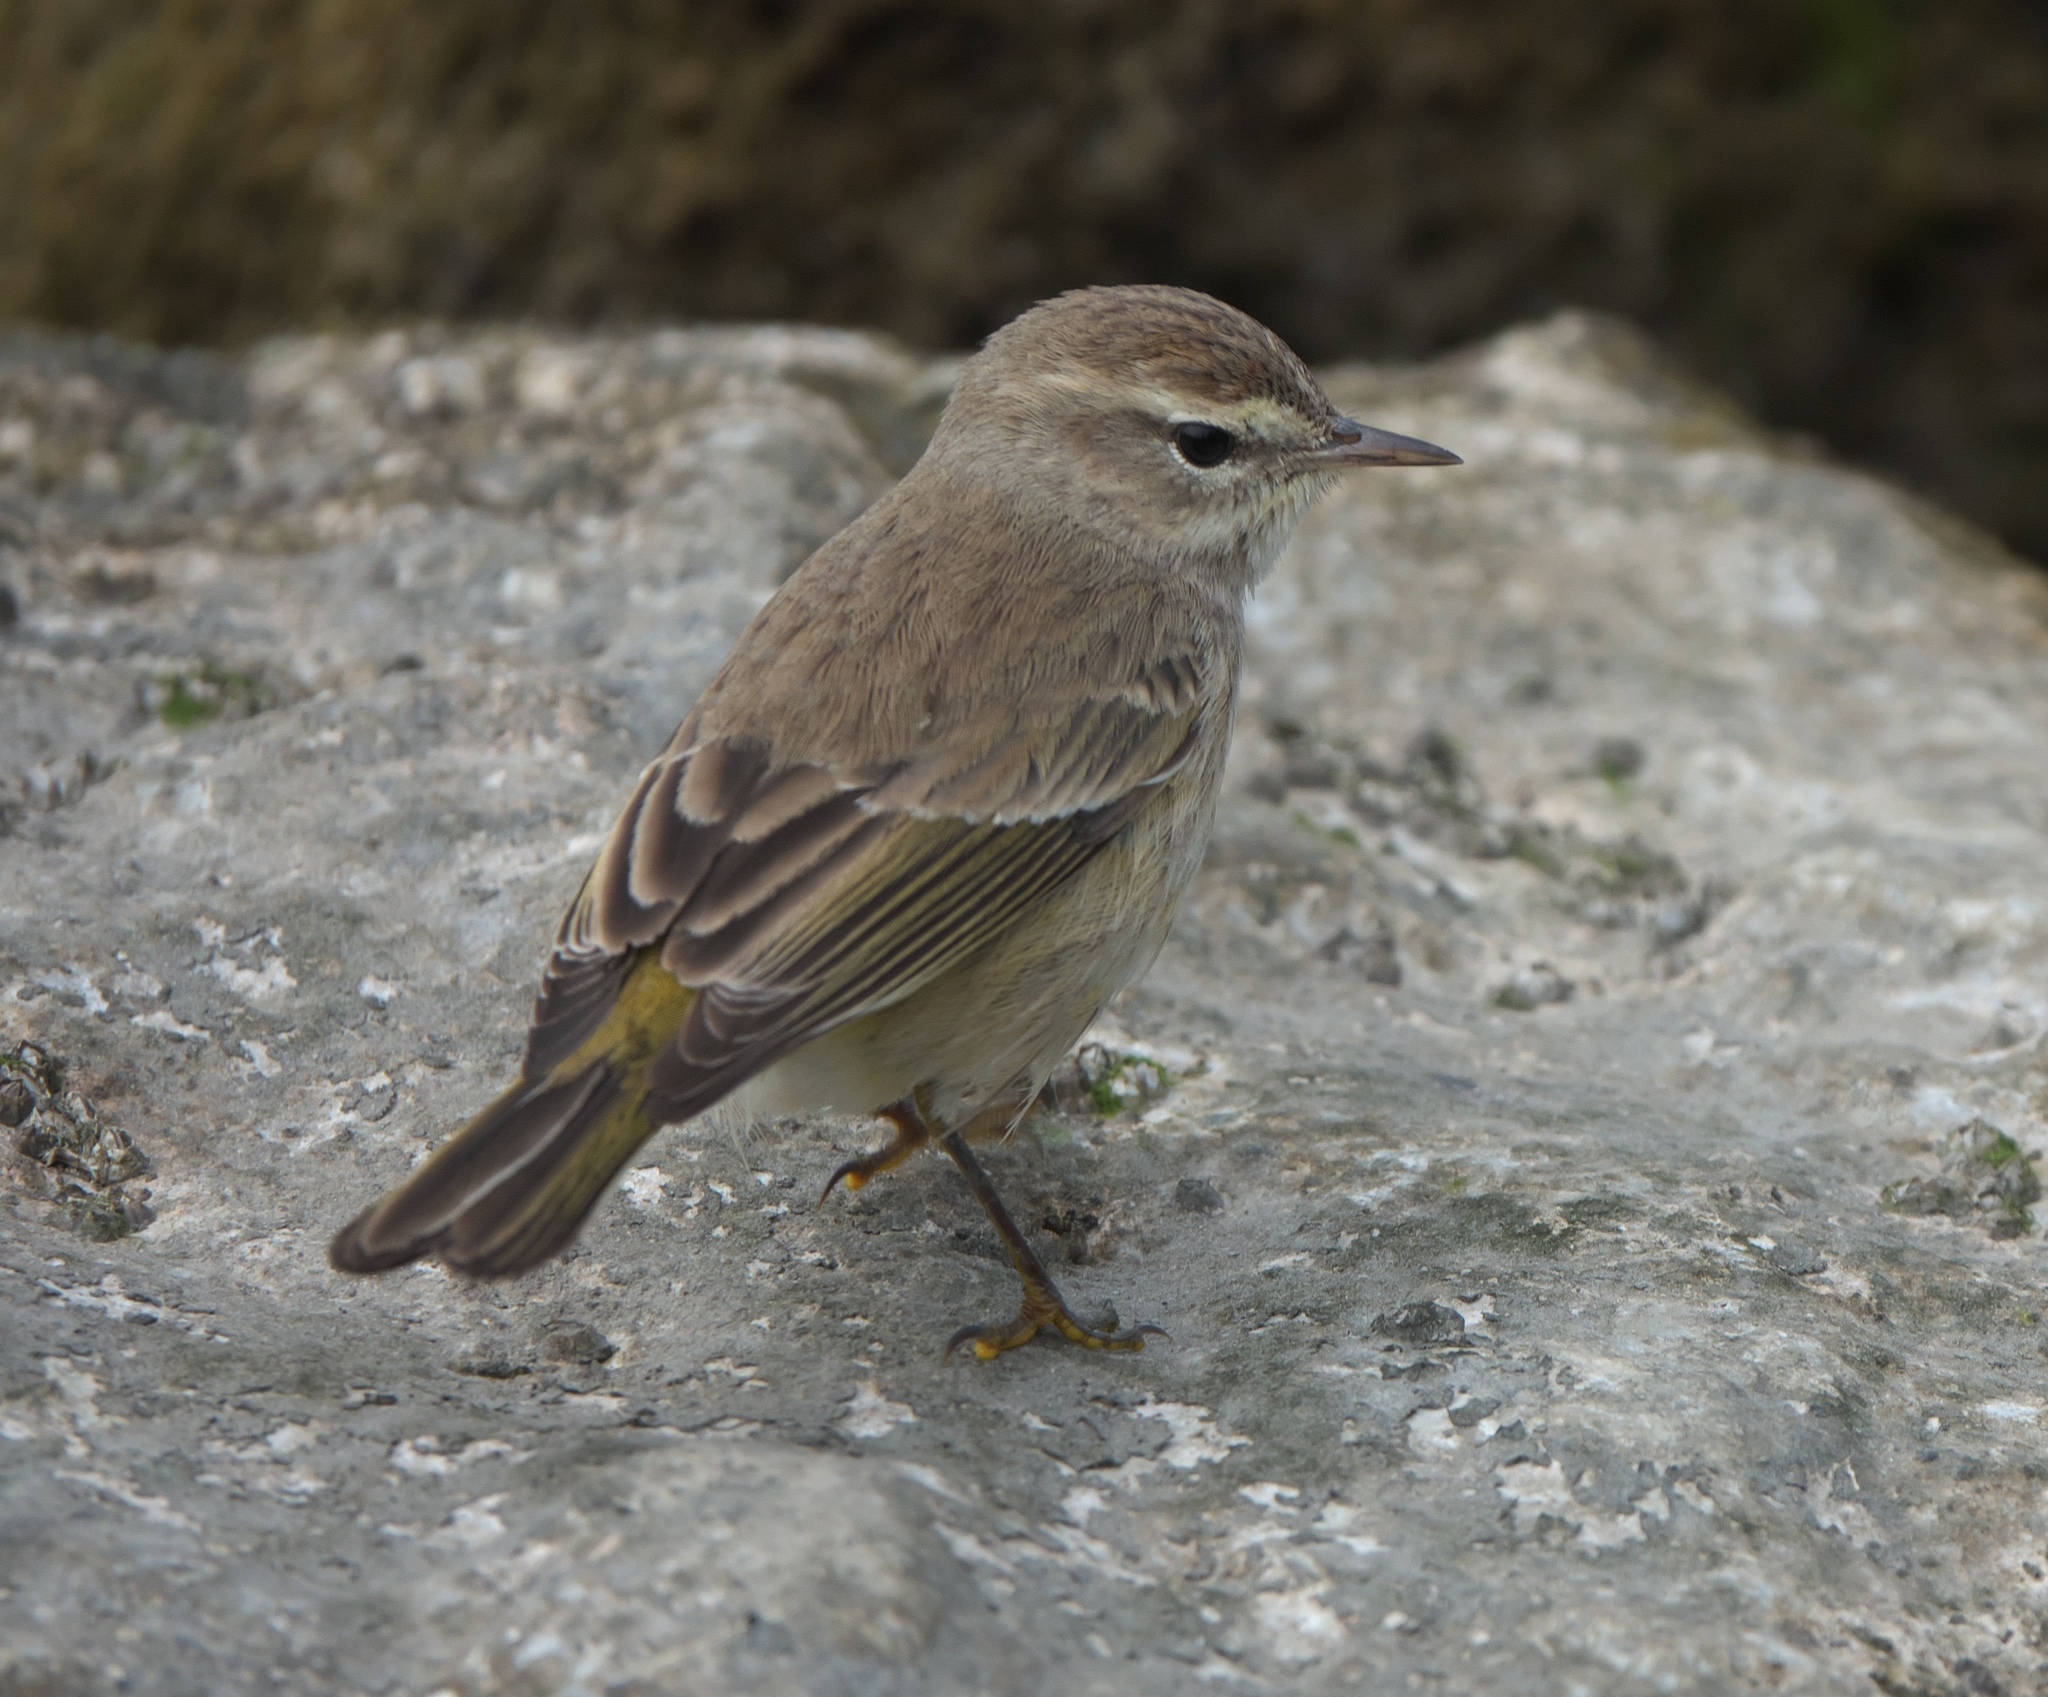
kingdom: Animalia
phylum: Chordata
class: Aves
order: Passeriformes
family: Parulidae
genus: Setophaga
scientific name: Setophaga palmarum
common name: Palm warbler
